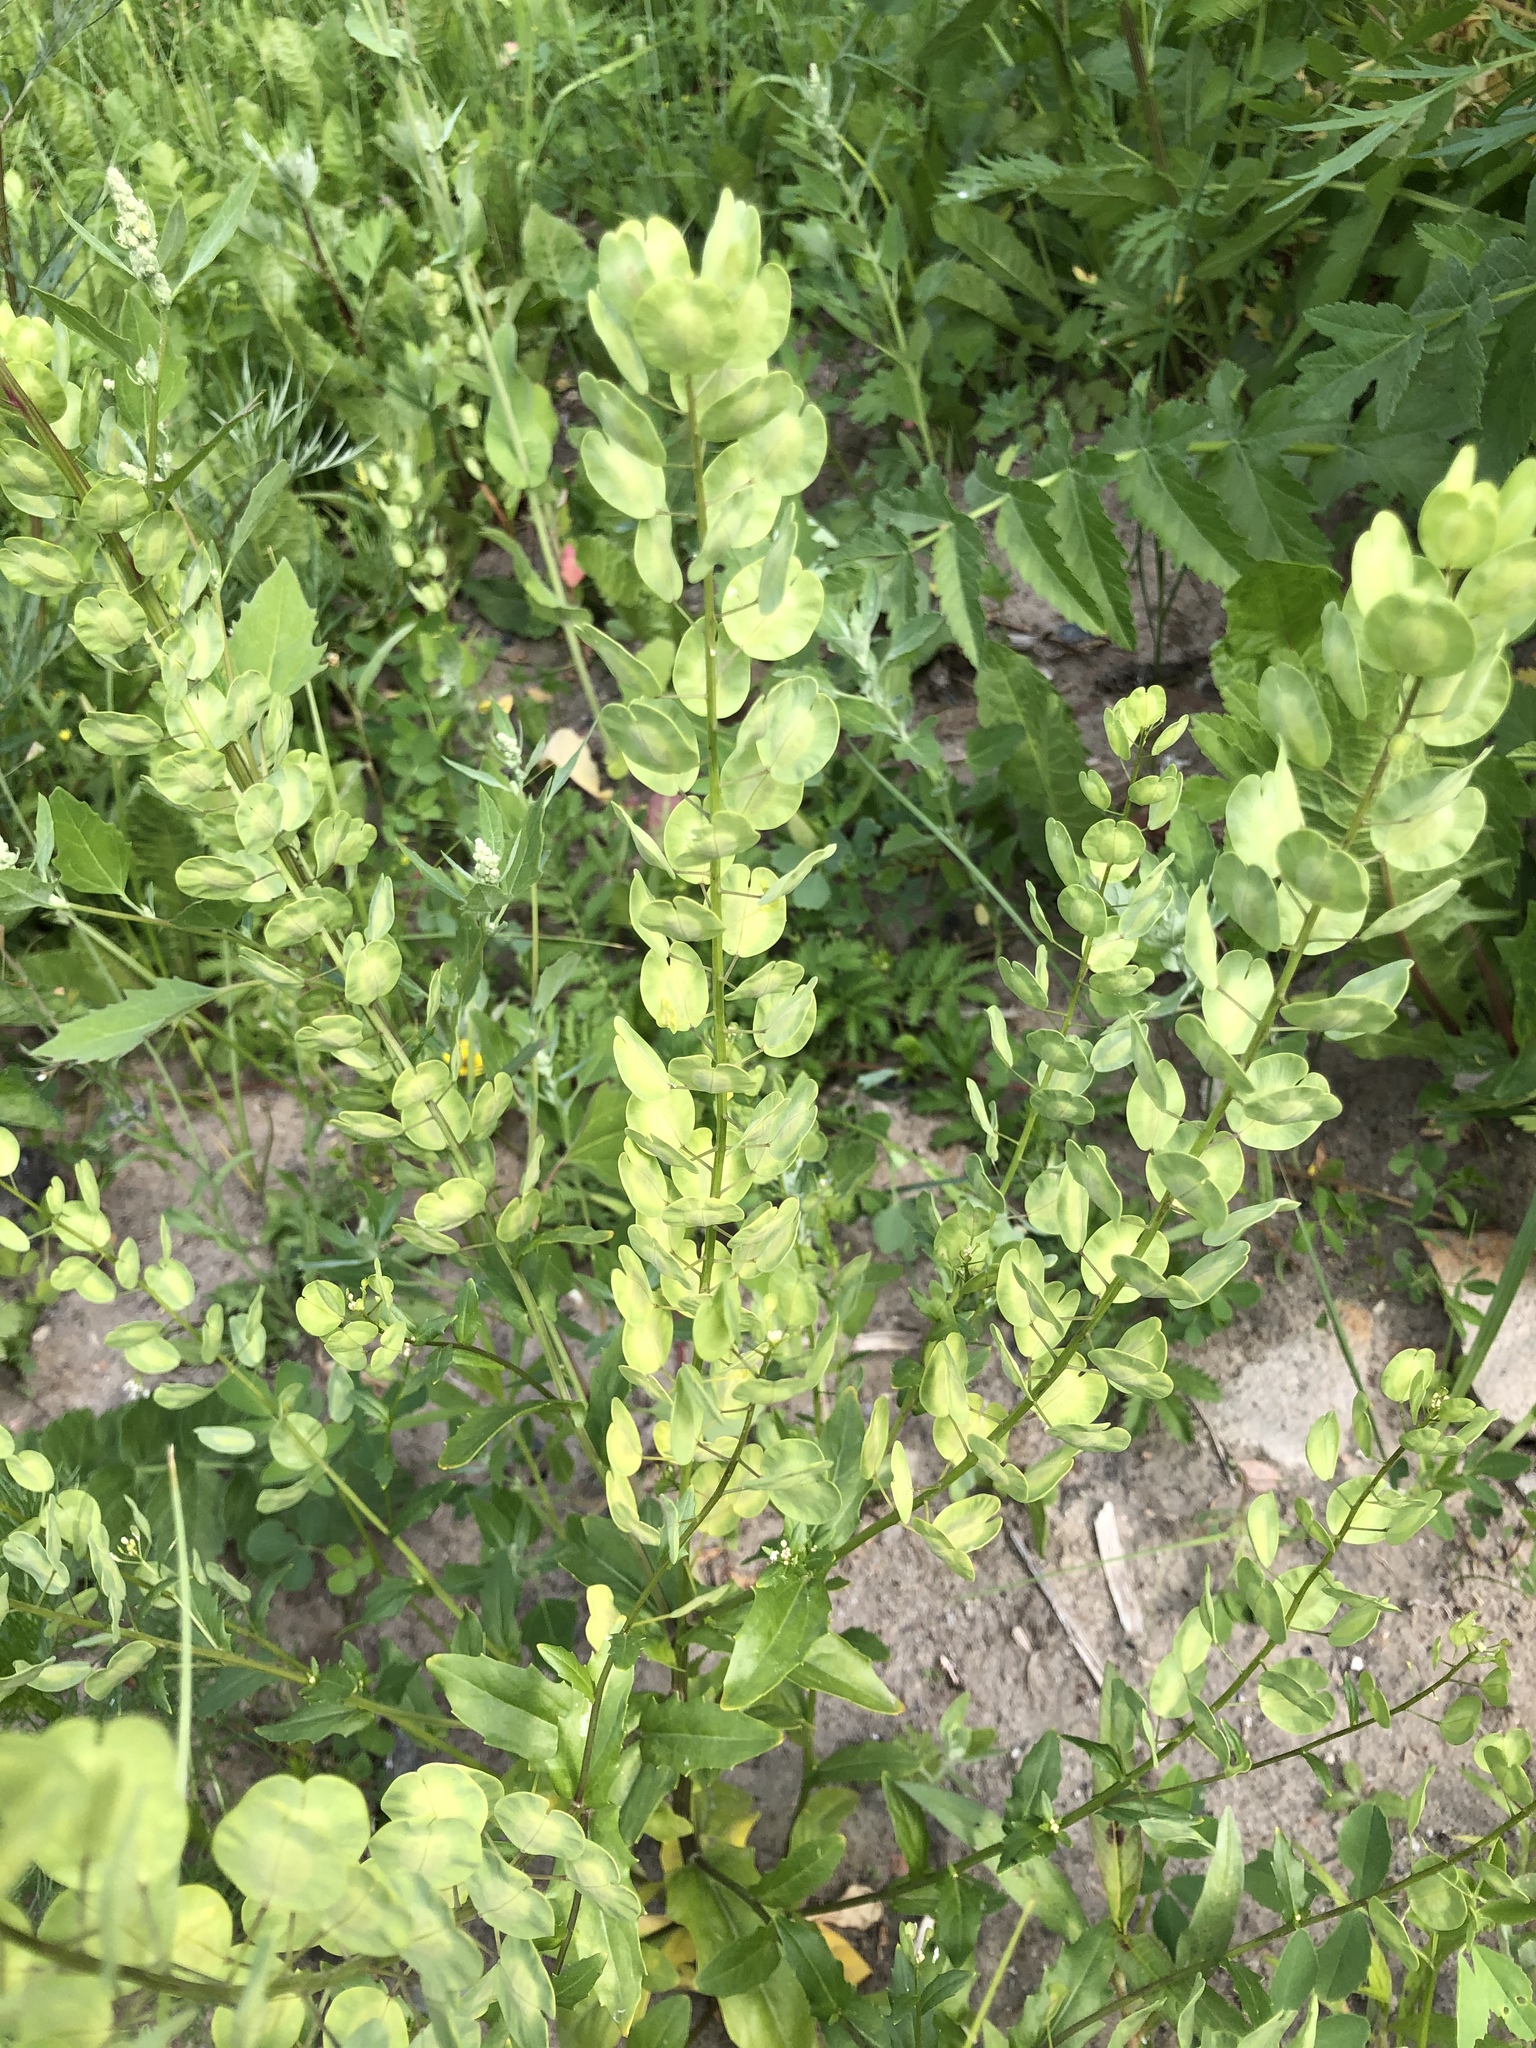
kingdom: Plantae
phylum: Tracheophyta
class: Magnoliopsida
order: Brassicales
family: Brassicaceae
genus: Thlaspi
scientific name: Thlaspi arvense
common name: Field pennycress
